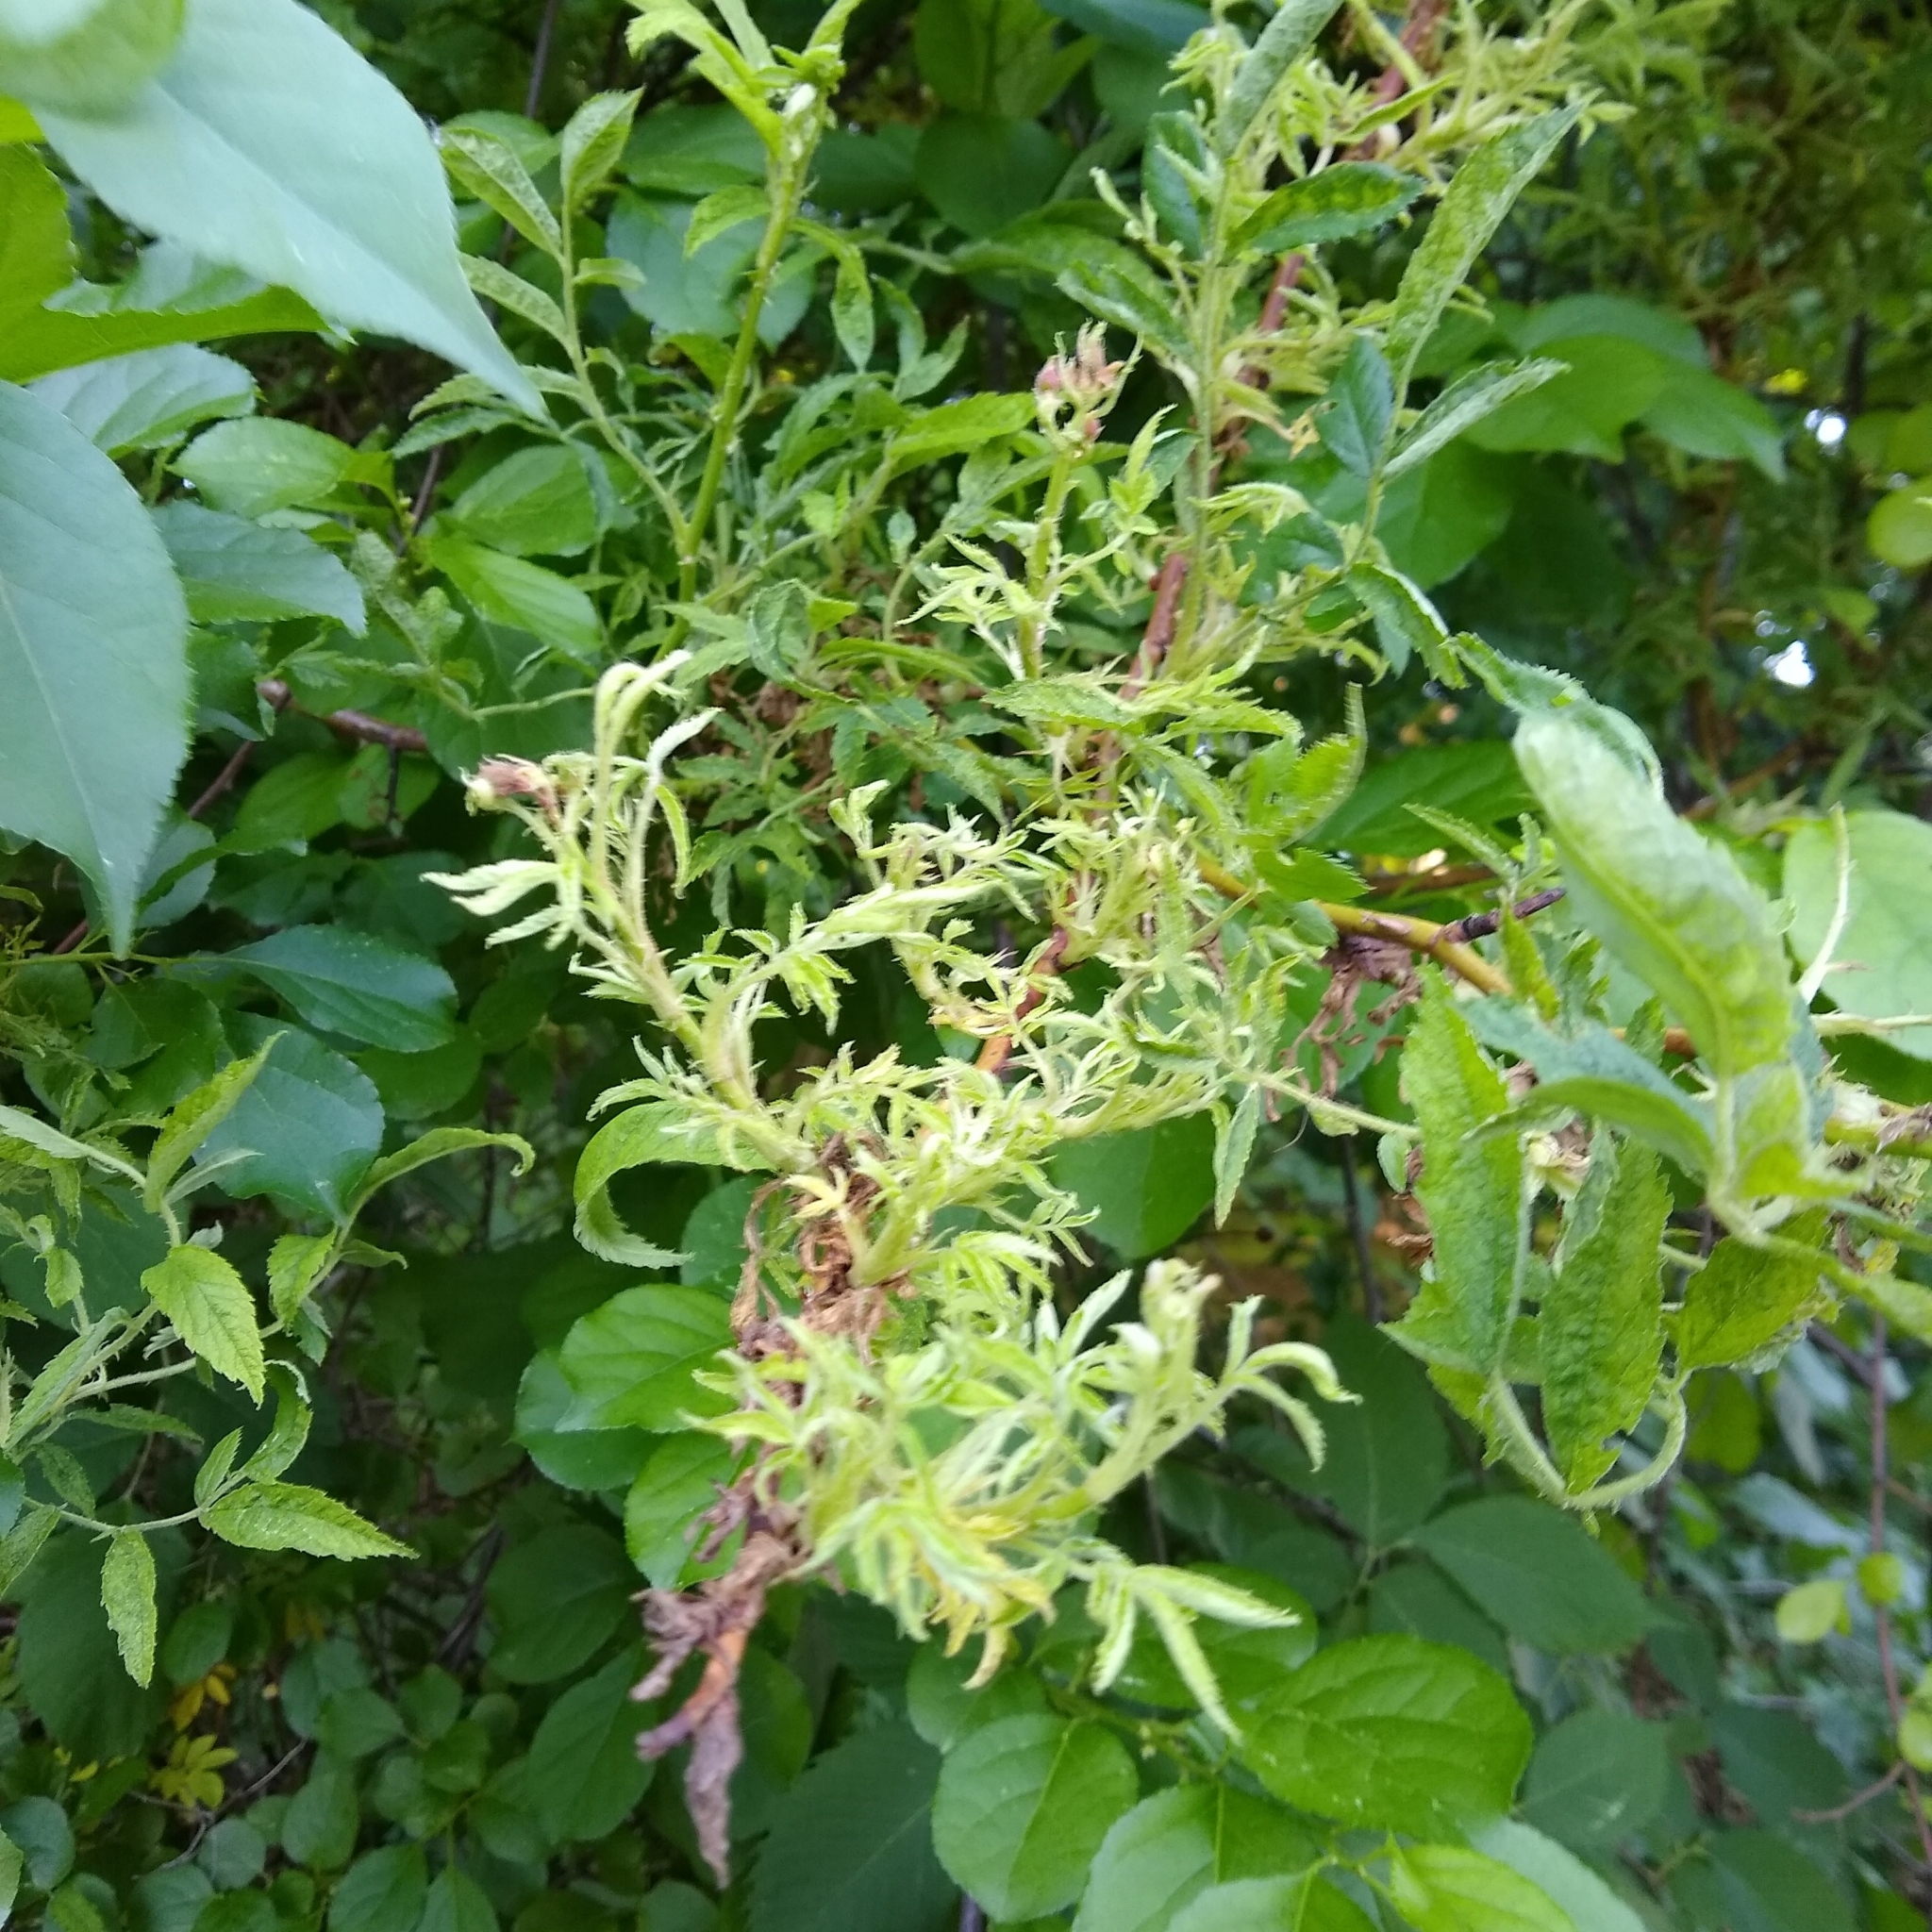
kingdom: Viruses
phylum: Negarnaviricota
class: Ellioviricetes
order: Bunyavirales
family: Fimoviridae
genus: Emaravirus
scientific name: Emaravirus rosae
